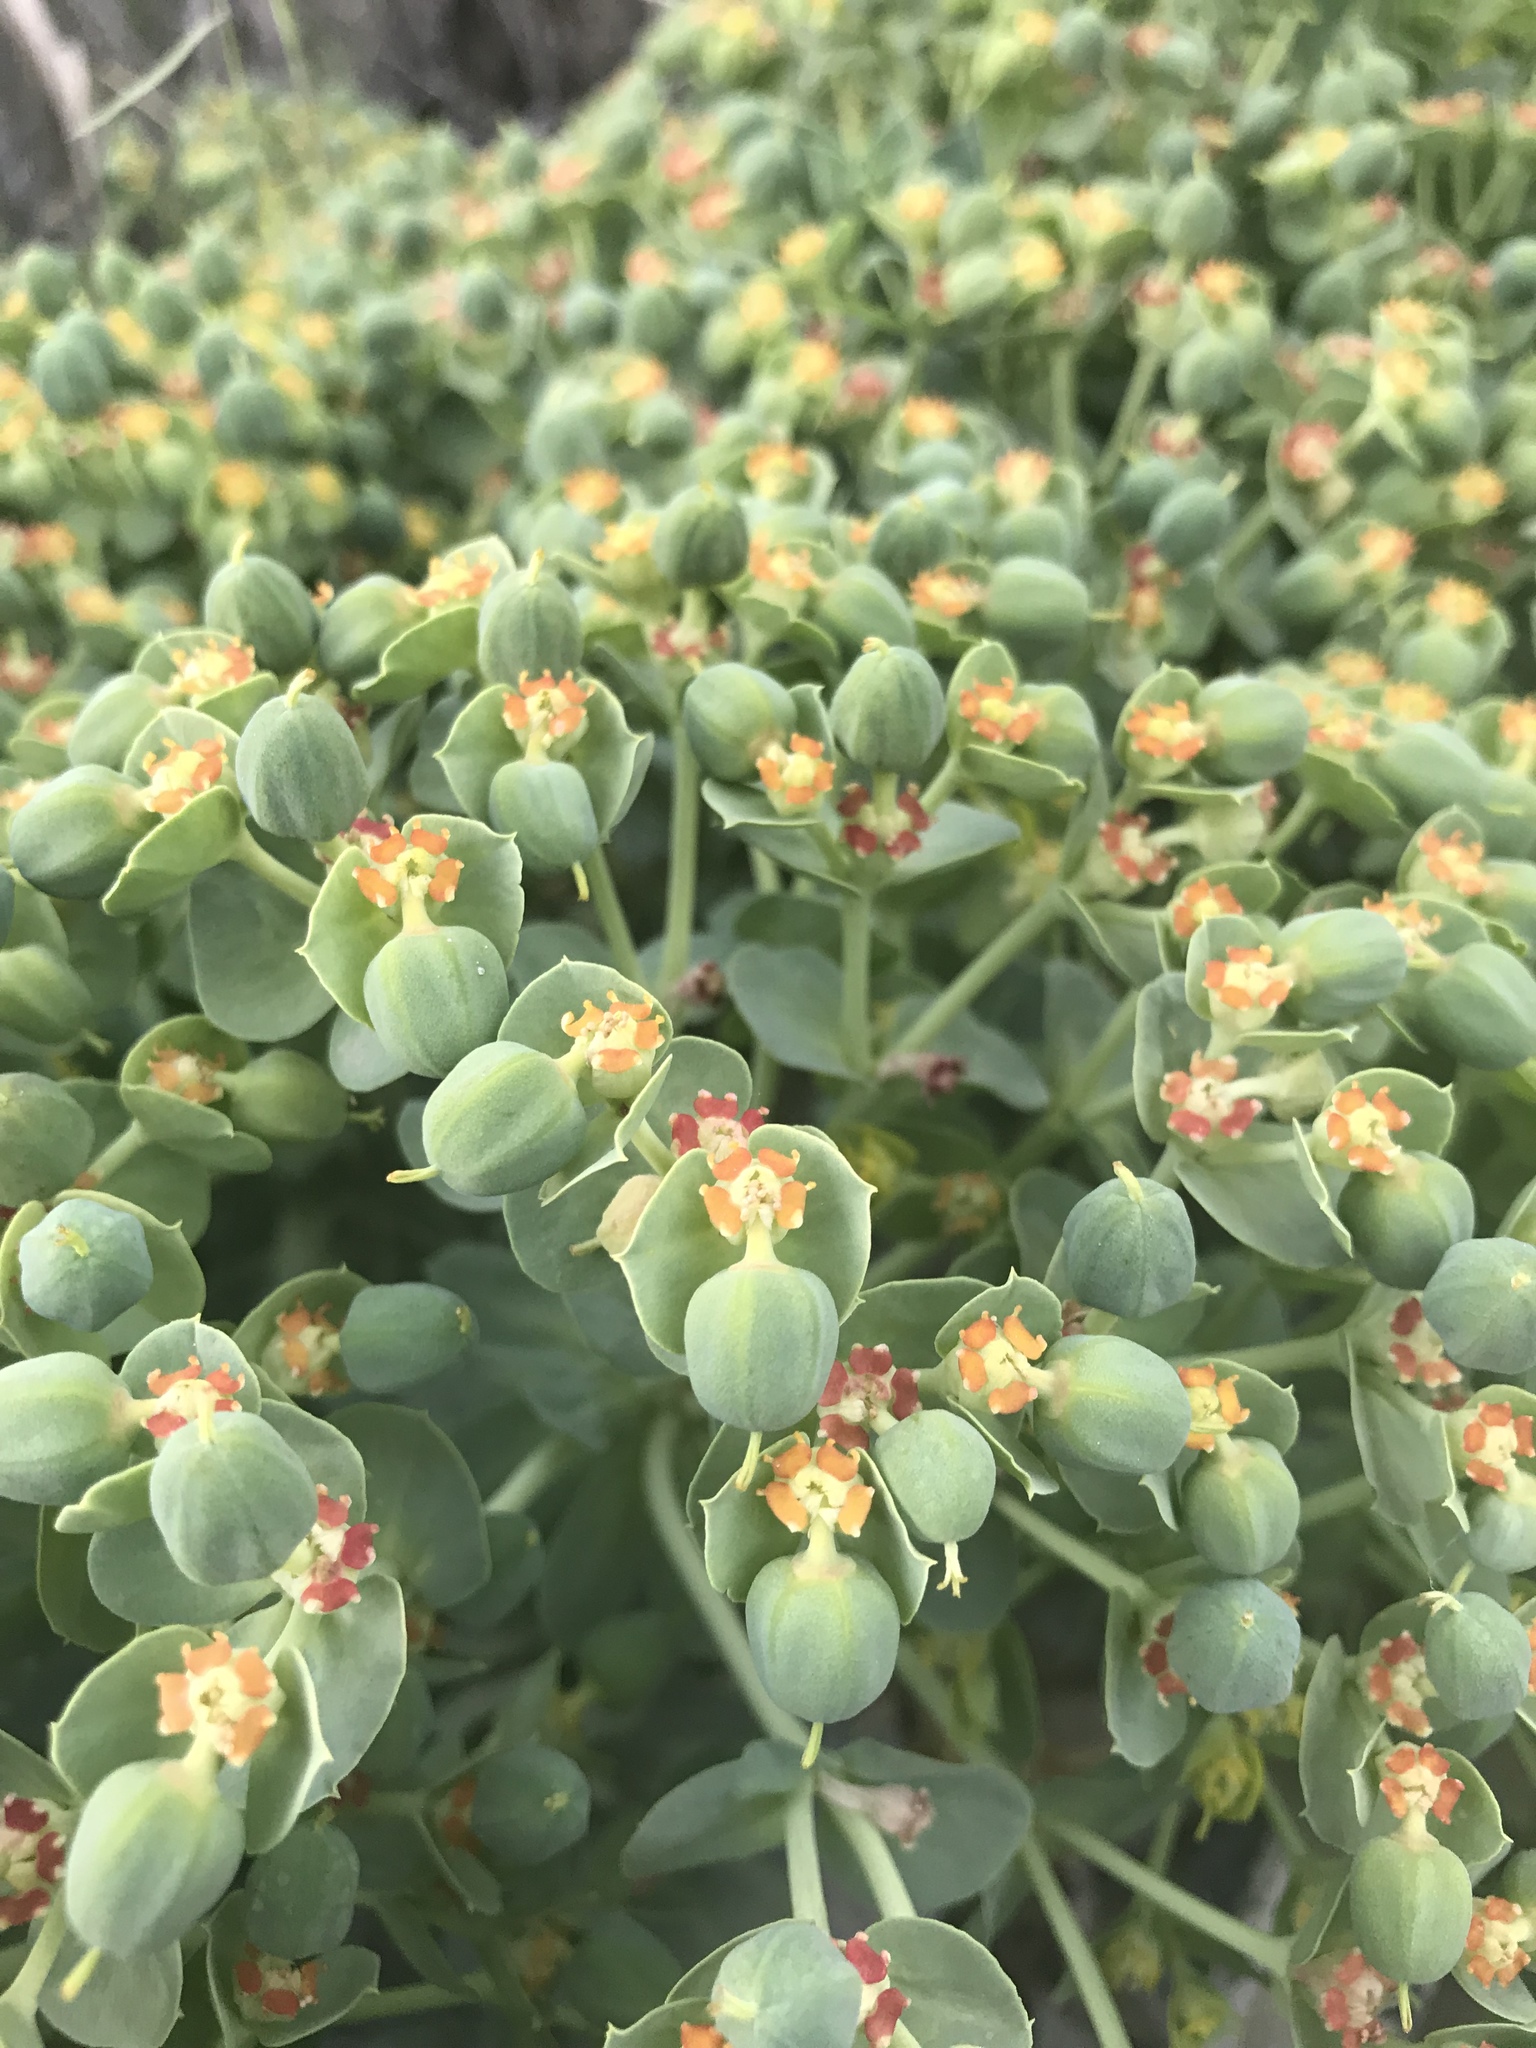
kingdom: Plantae
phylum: Tracheophyta
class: Magnoliopsida
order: Malpighiales
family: Euphorbiaceae
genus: Euphorbia
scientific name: Euphorbia myrsinites
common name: Myrtle spurge
